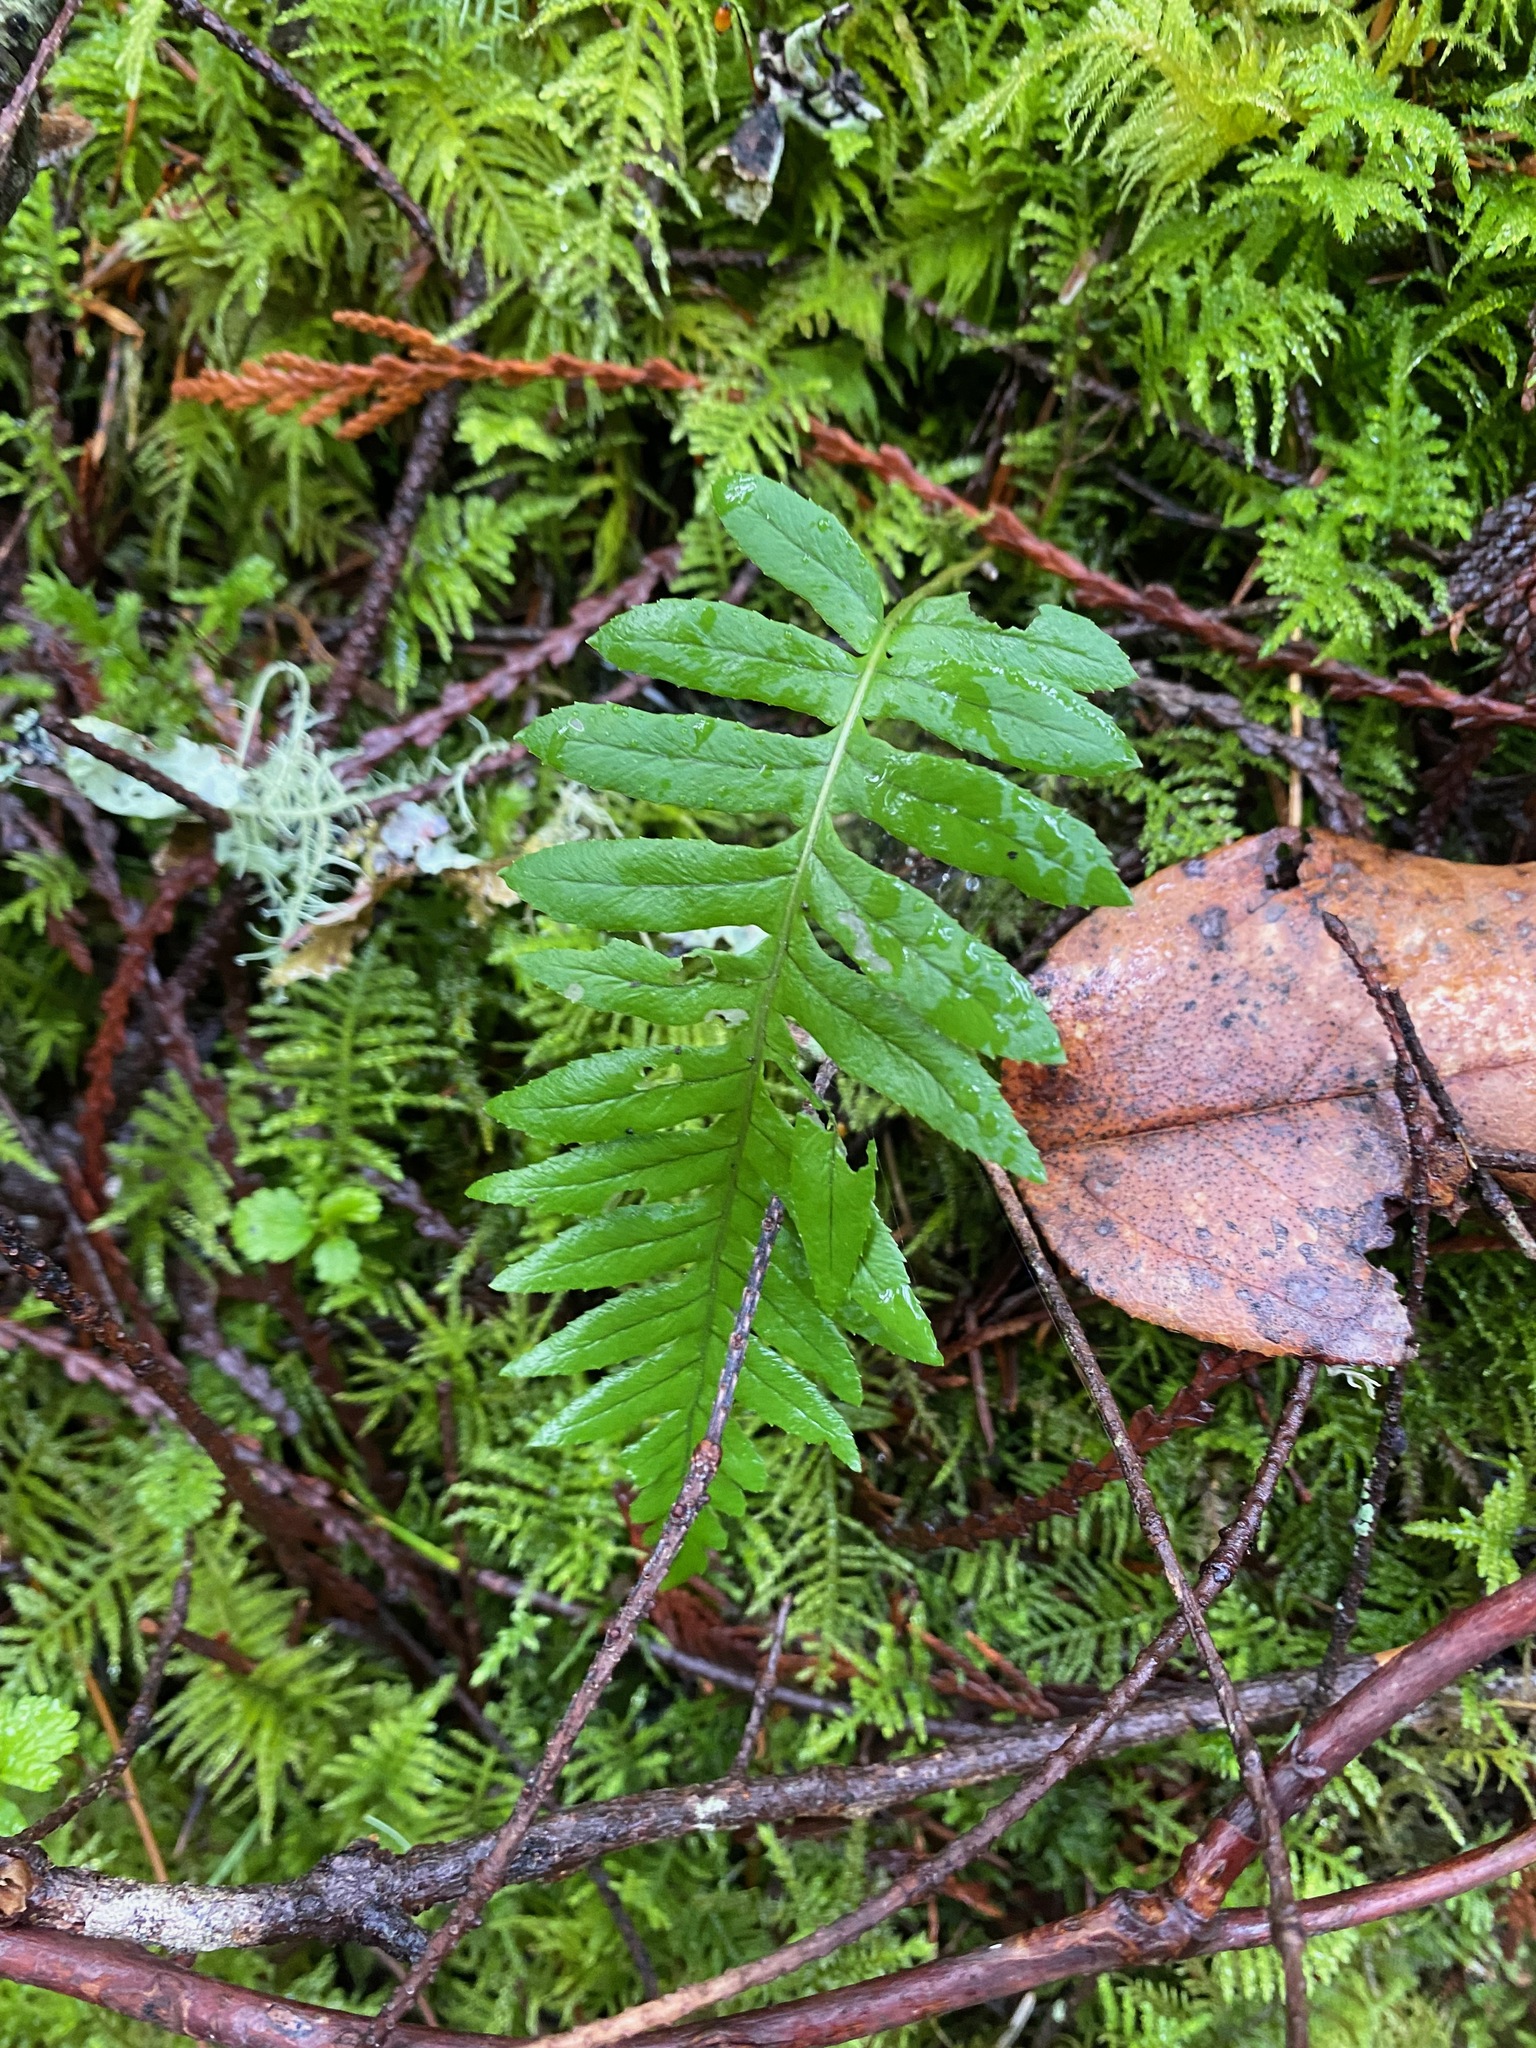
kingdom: Plantae
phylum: Tracheophyta
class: Polypodiopsida
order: Polypodiales
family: Polypodiaceae
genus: Polypodium
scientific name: Polypodium glycyrrhiza
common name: Licorice fern
